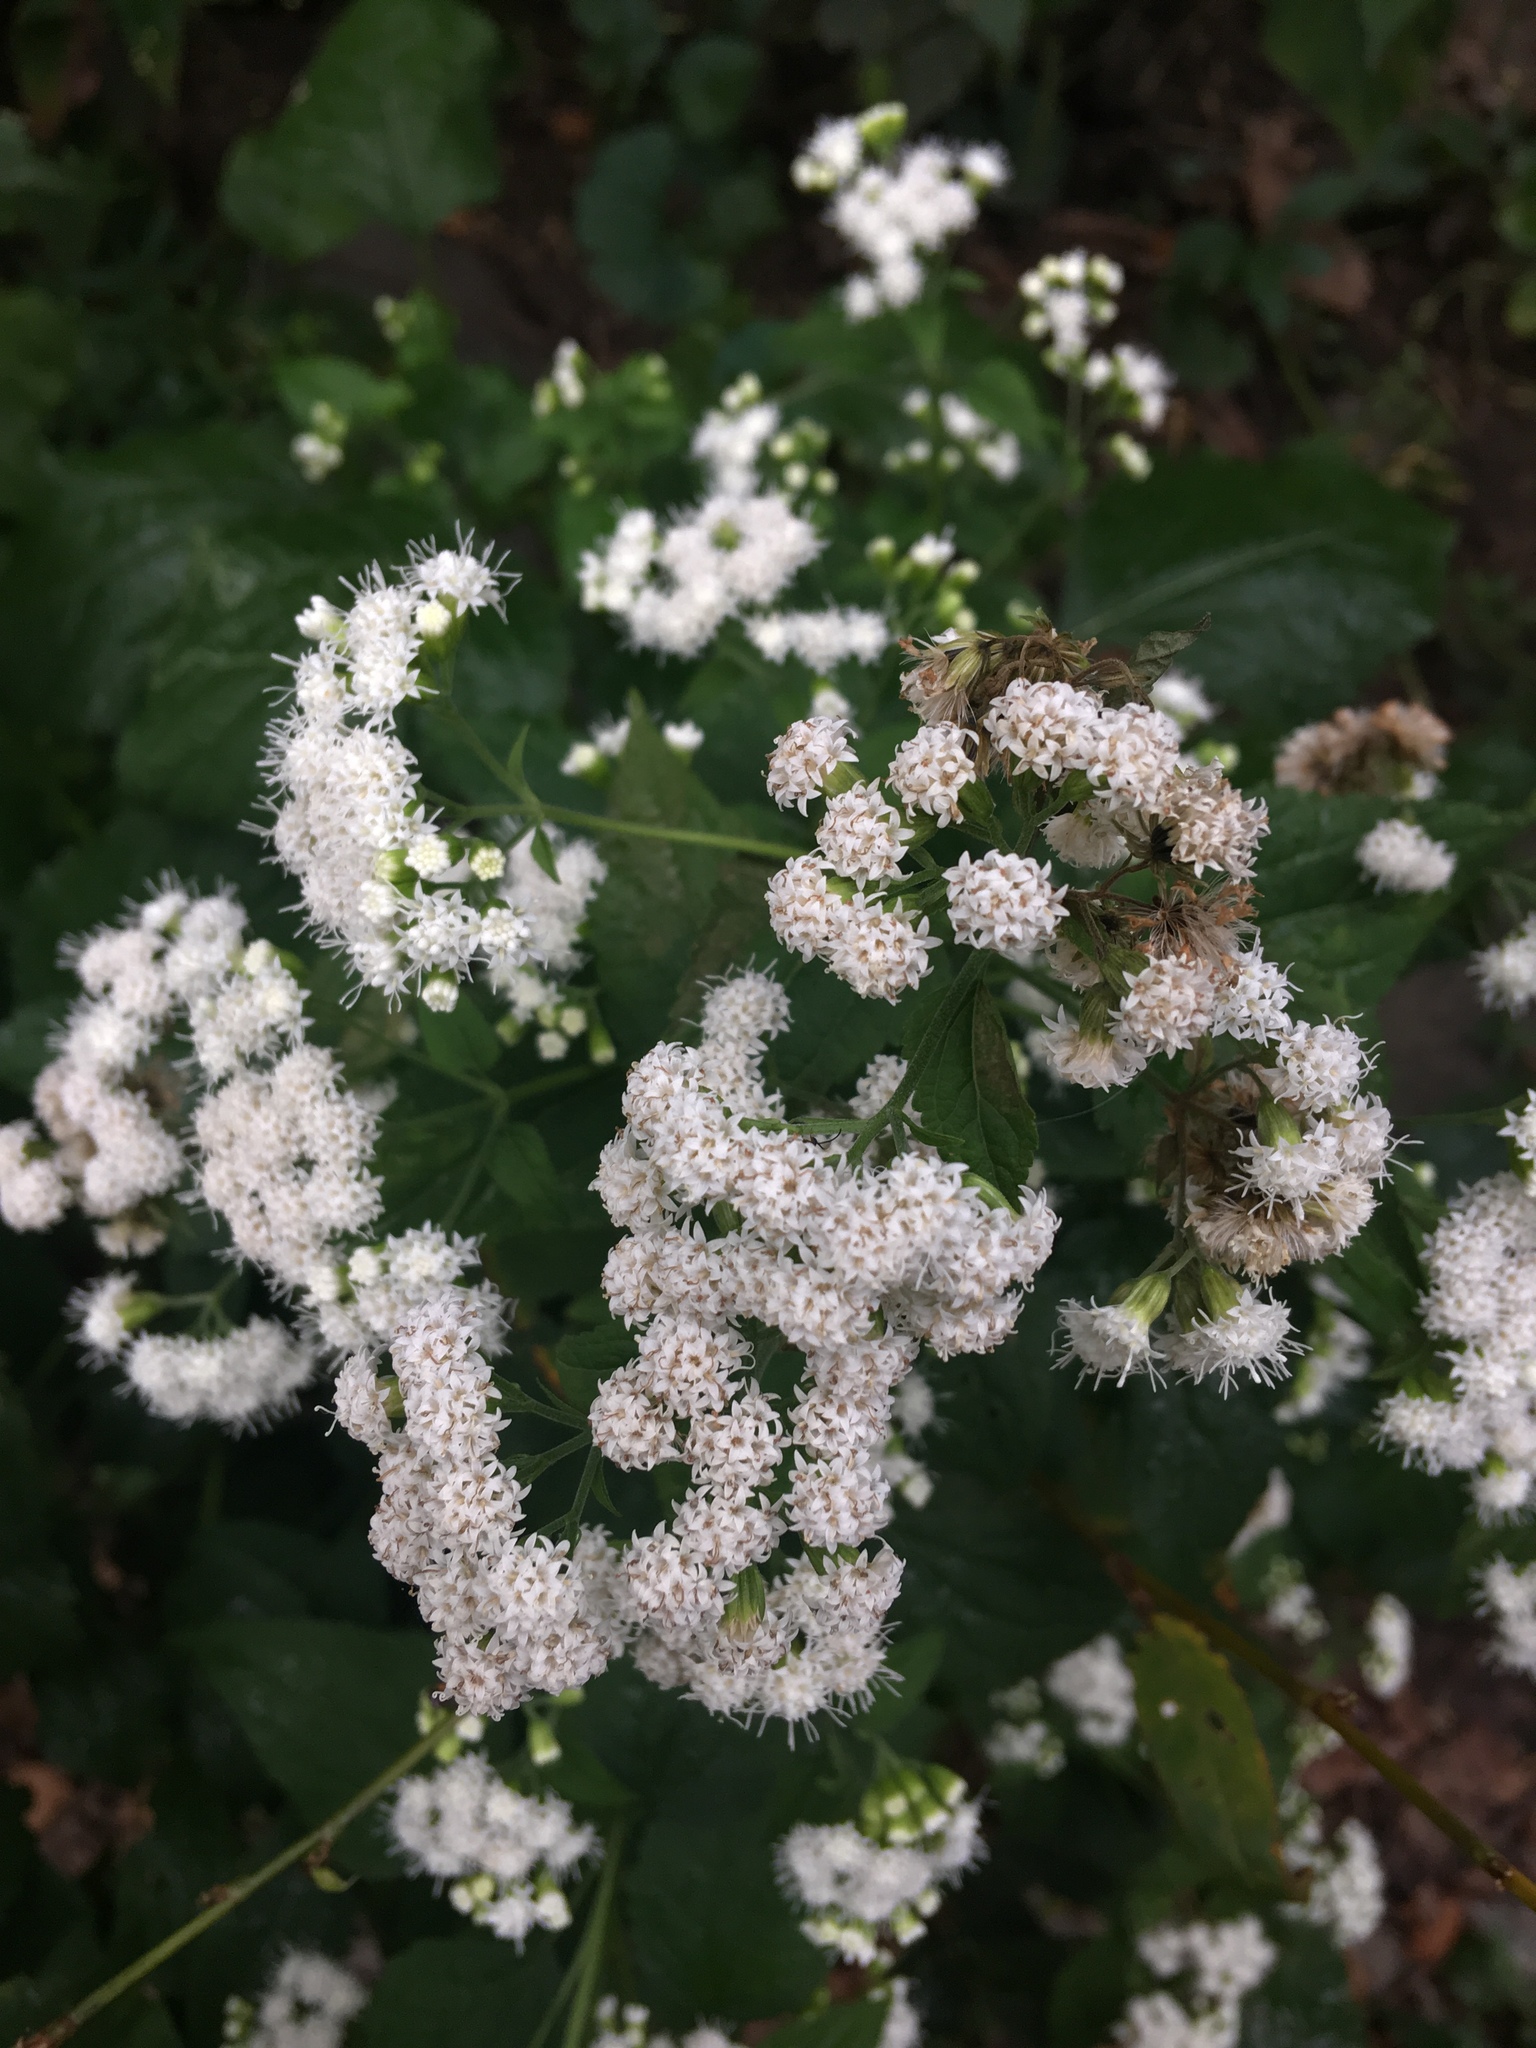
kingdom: Plantae
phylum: Tracheophyta
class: Magnoliopsida
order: Asterales
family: Asteraceae
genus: Ageratina
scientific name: Ageratina altissima
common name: White snakeroot
